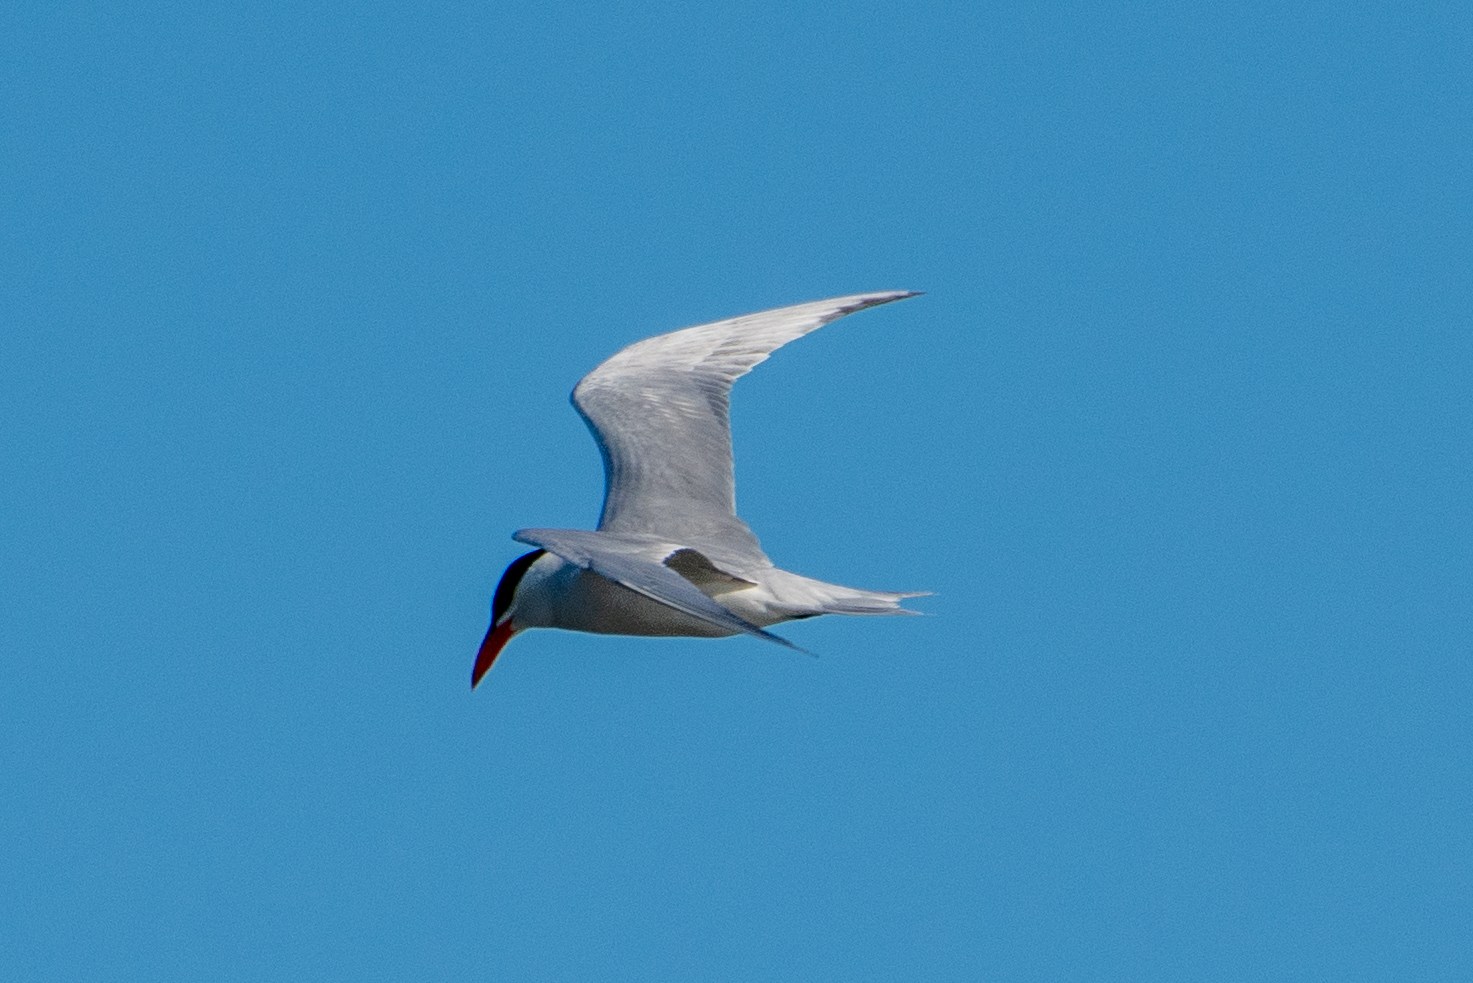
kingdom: Animalia
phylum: Chordata
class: Aves
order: Charadriiformes
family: Laridae
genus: Hydroprogne
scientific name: Hydroprogne caspia
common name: Caspian tern
